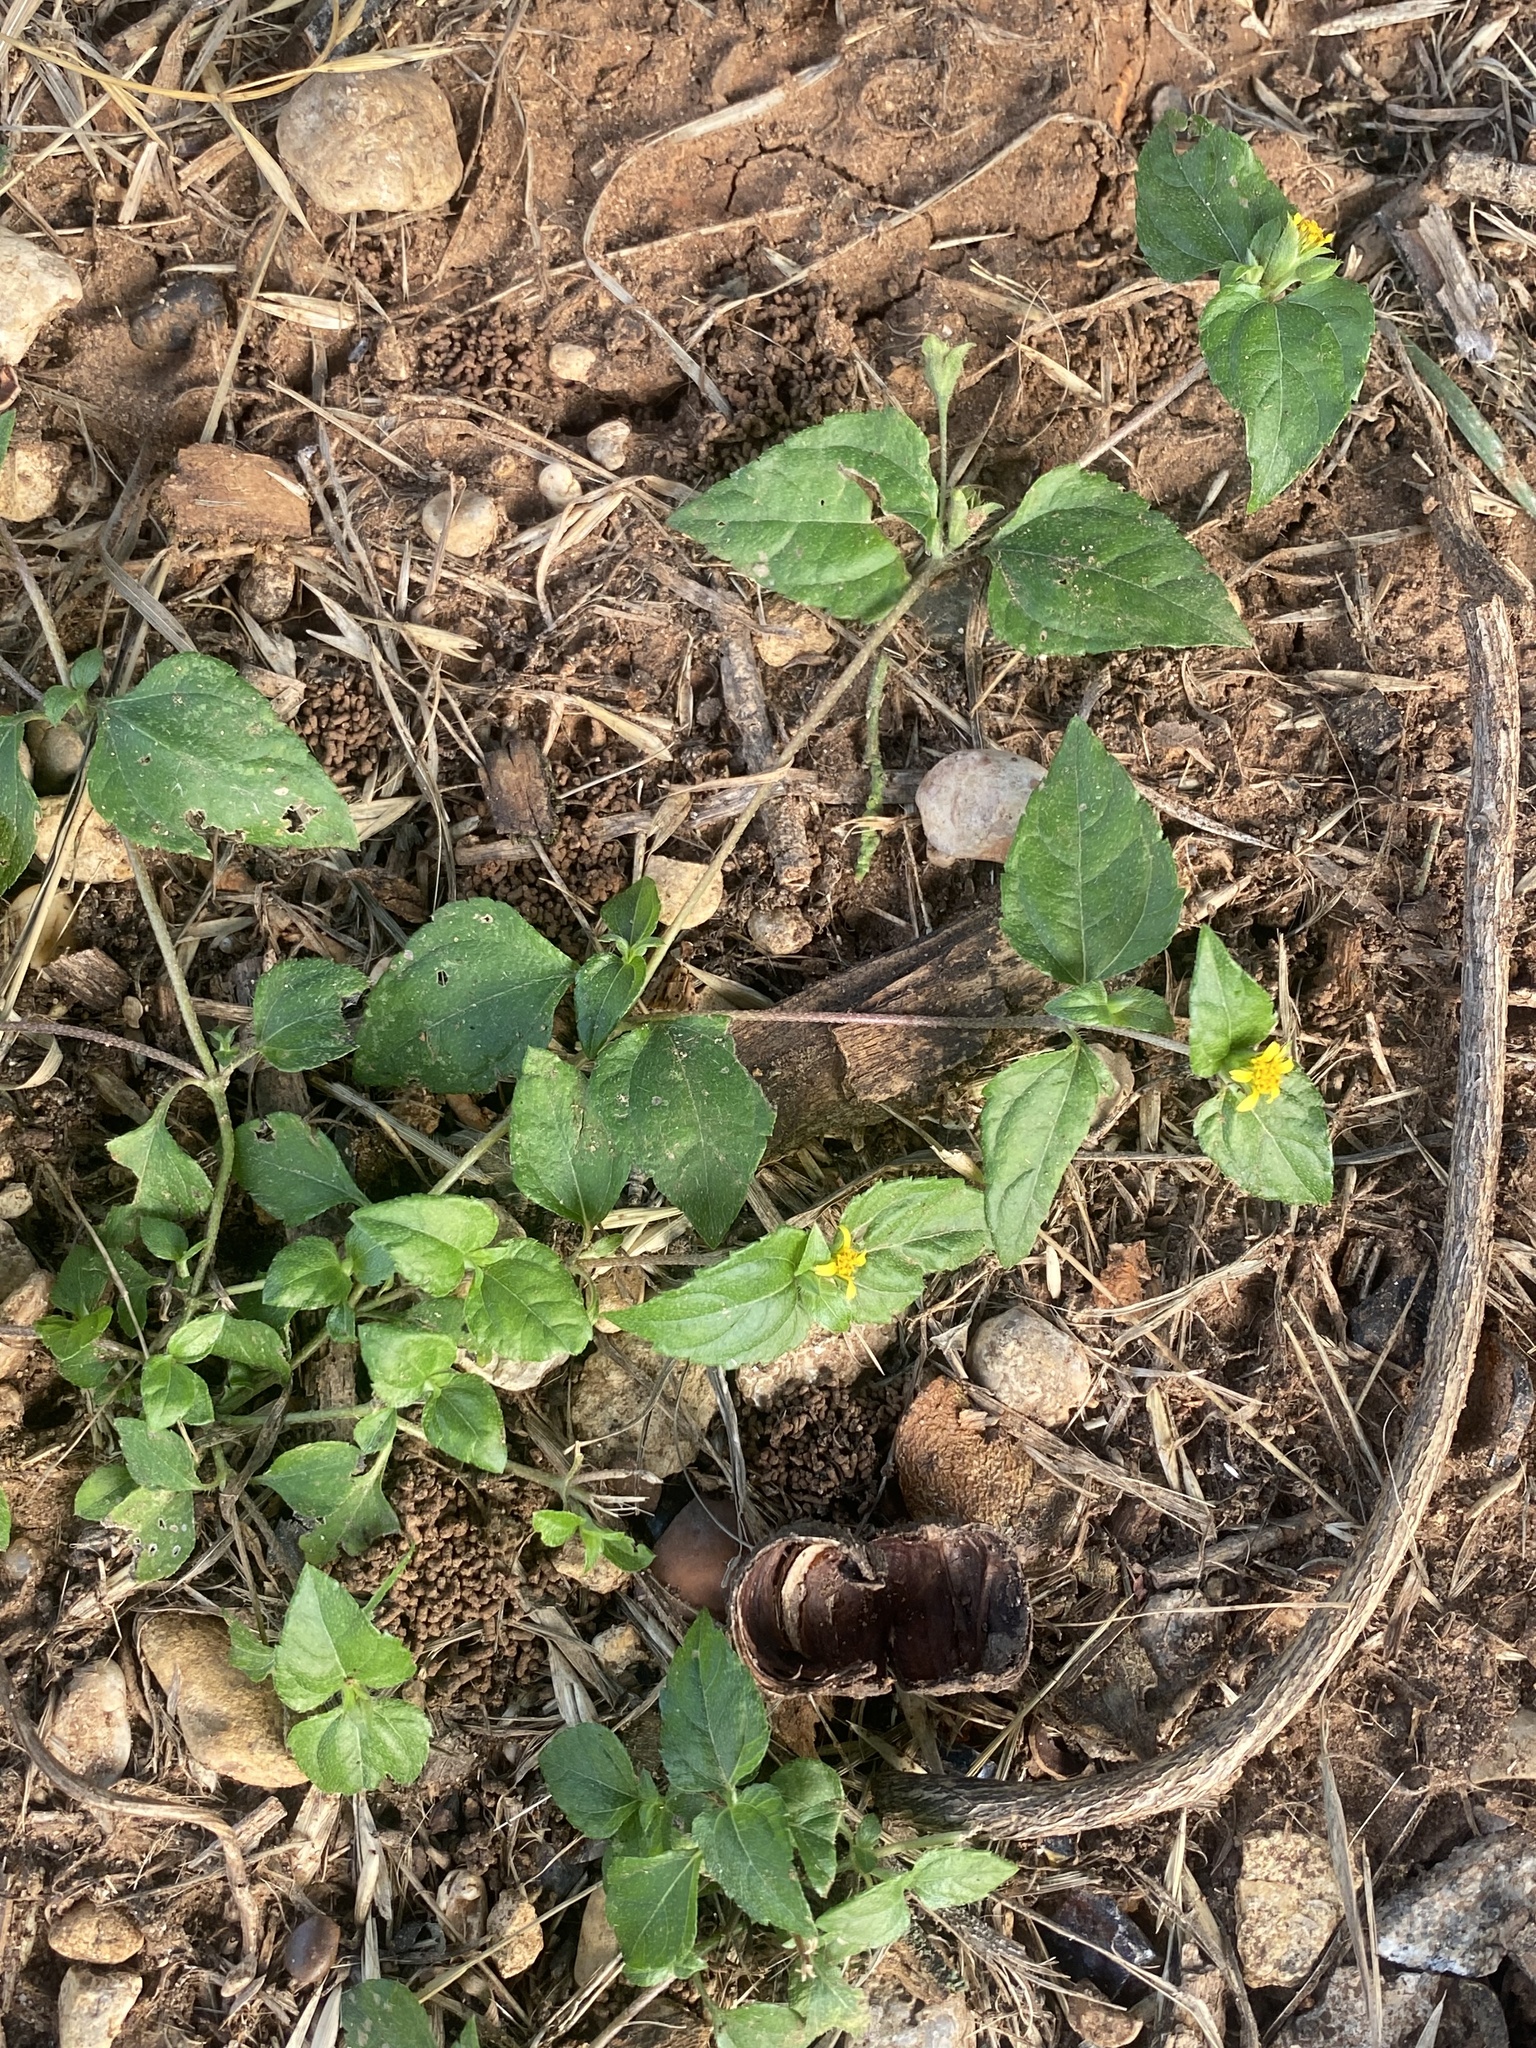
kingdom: Plantae
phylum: Tracheophyta
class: Magnoliopsida
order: Asterales
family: Asteraceae
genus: Calyptocarpus
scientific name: Calyptocarpus vialis
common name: Straggler daisy
